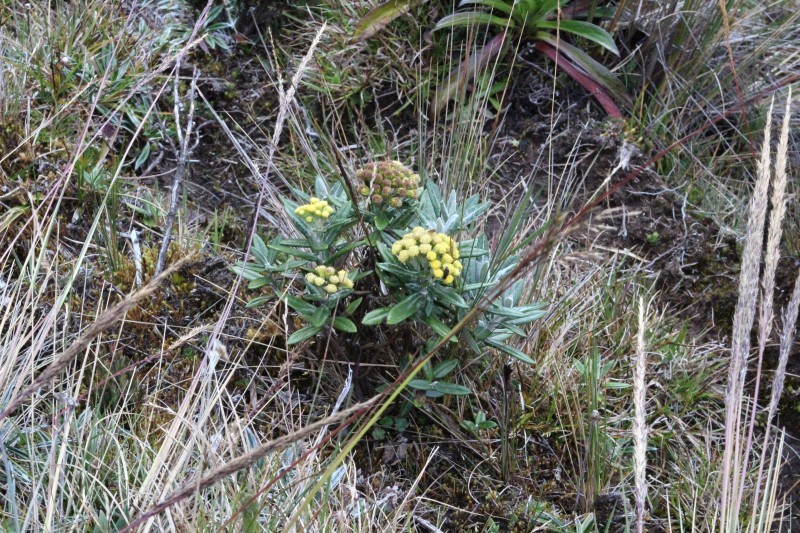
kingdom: Plantae
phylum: Tracheophyta
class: Magnoliopsida
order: Asterales
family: Asteraceae
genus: Monticalia
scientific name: Monticalia andicola
